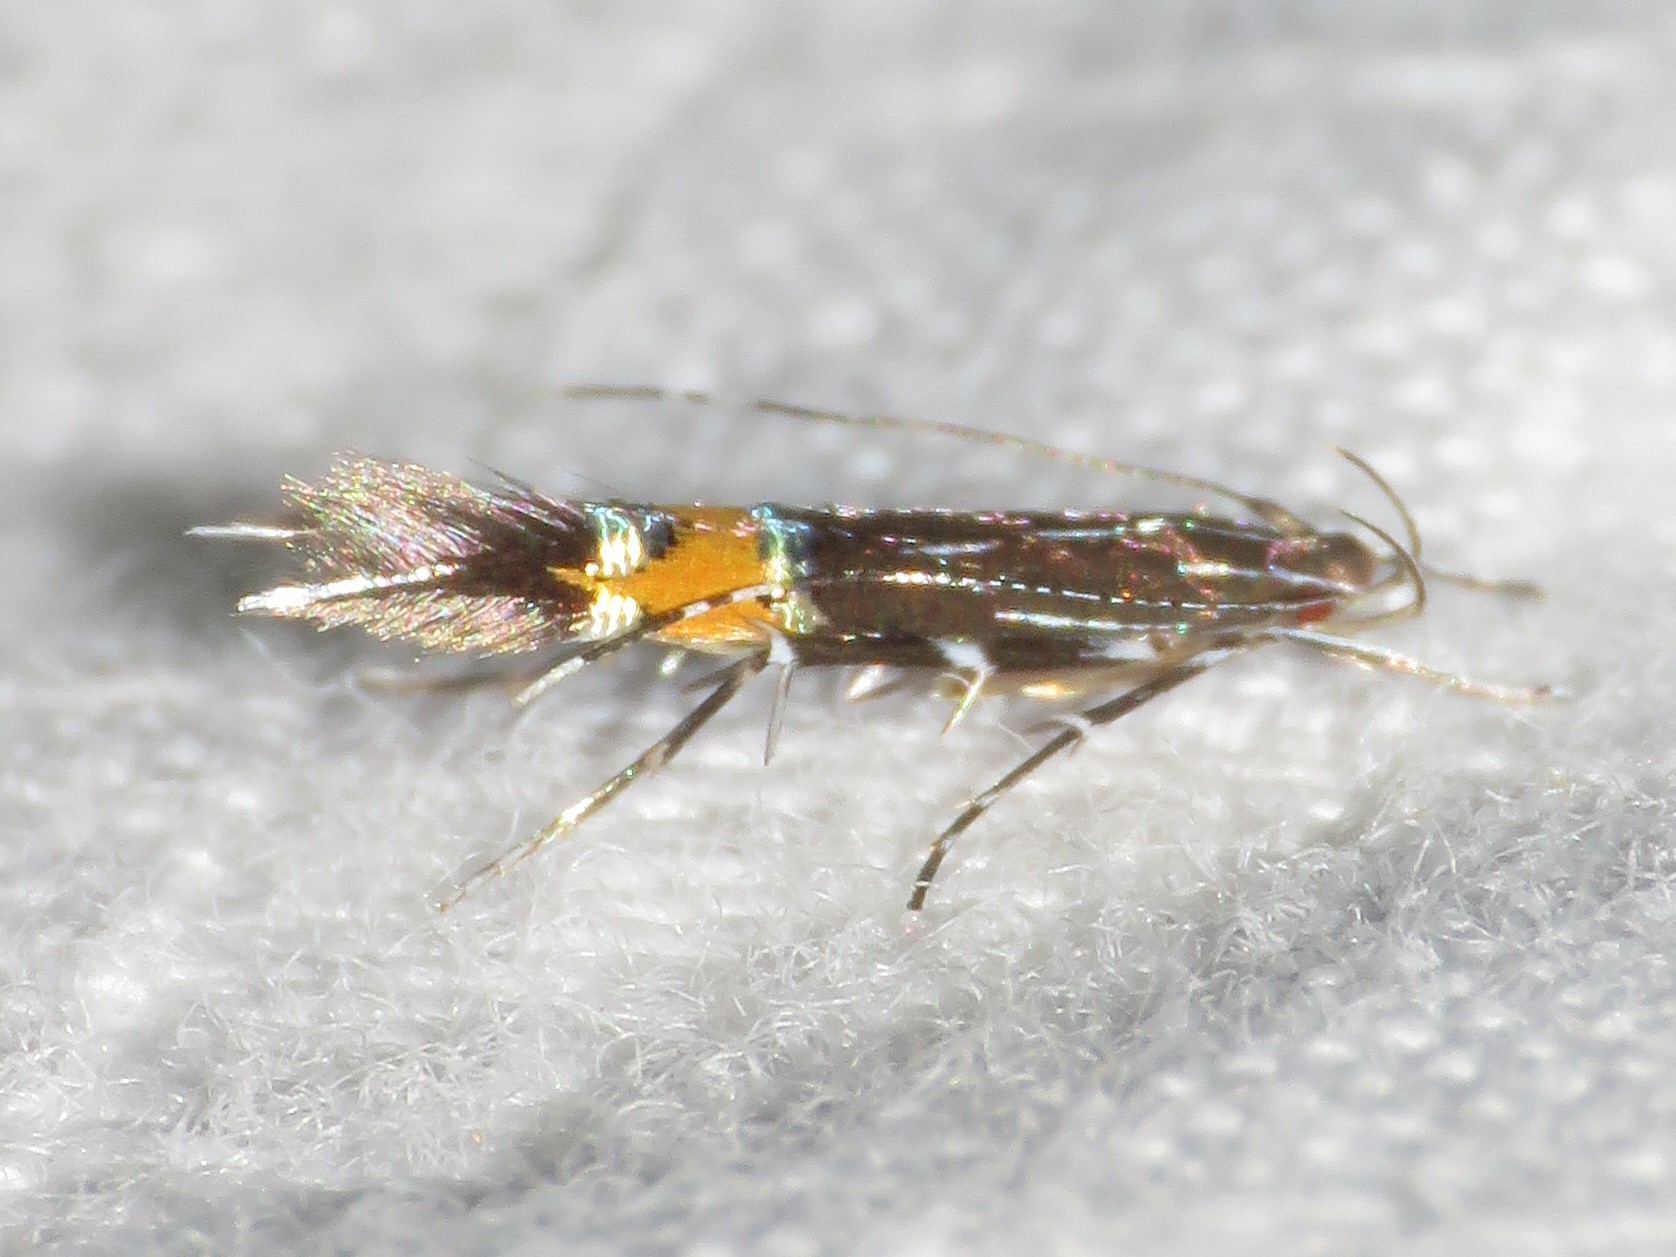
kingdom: Animalia
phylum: Arthropoda
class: Insecta
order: Lepidoptera
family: Cosmopterigidae
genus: Cosmopterix
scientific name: Cosmopterix lespedezae
